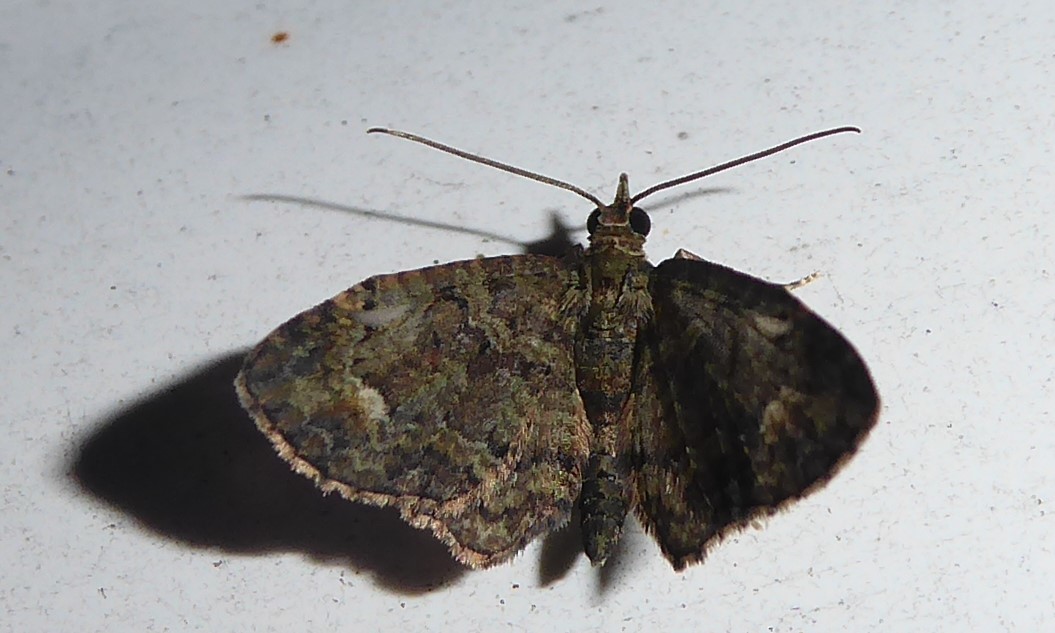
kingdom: Animalia
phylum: Arthropoda
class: Insecta
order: Lepidoptera
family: Geometridae
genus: Pasiphilodes
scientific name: Pasiphilodes testulata
